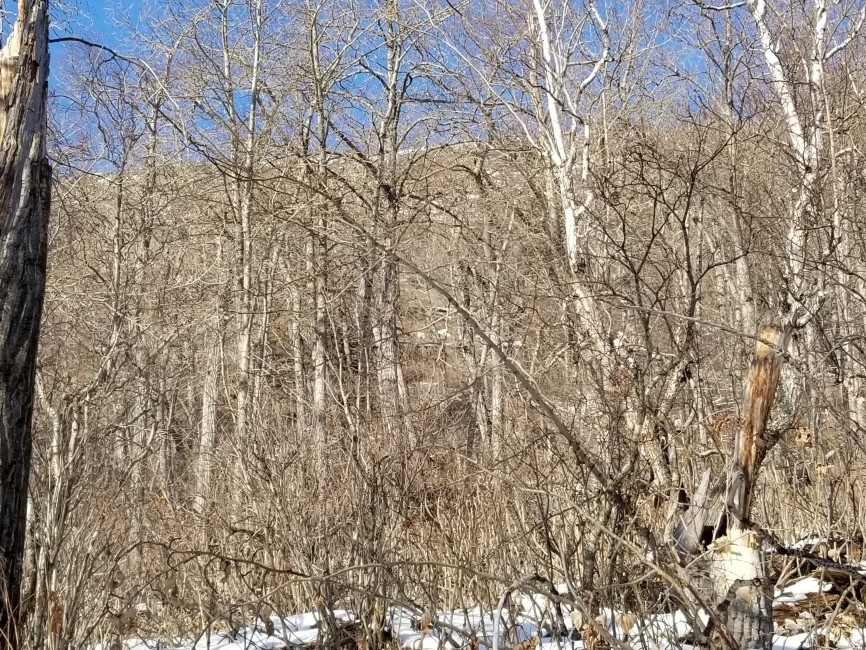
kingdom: Animalia
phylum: Chordata
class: Mammalia
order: Artiodactyla
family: Bovidae
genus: Ovis
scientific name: Ovis dalli
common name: Dall's sheep
